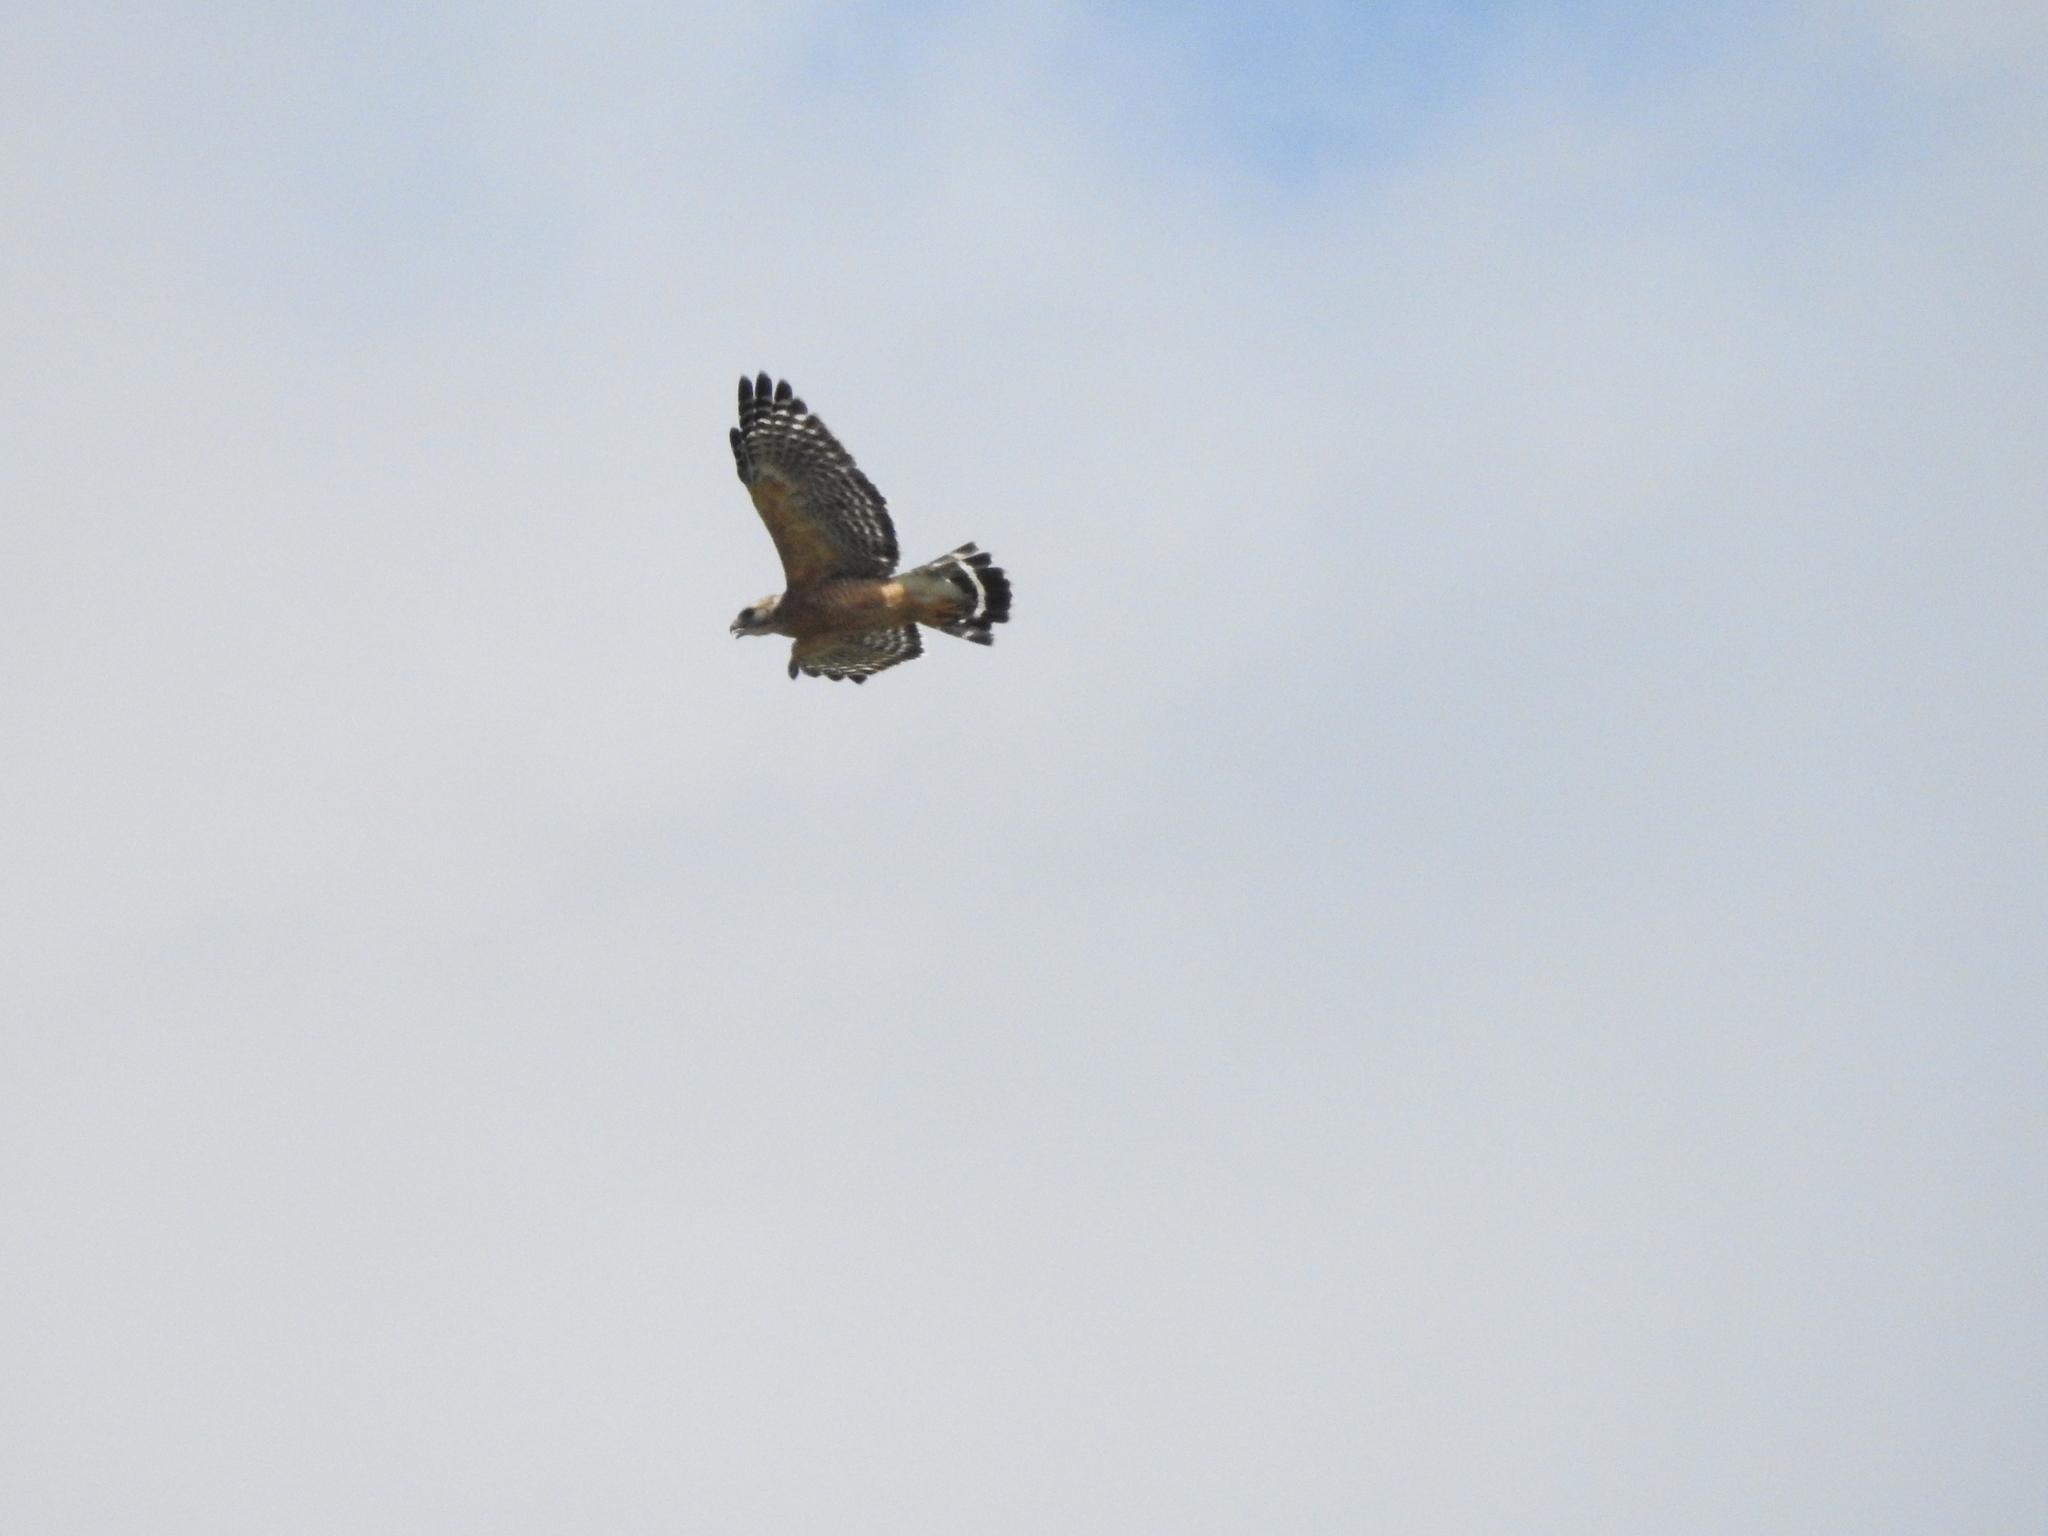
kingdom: Animalia
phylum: Chordata
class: Aves
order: Accipitriformes
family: Accipitridae
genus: Buteo
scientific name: Buteo lineatus
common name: Red-shouldered hawk
